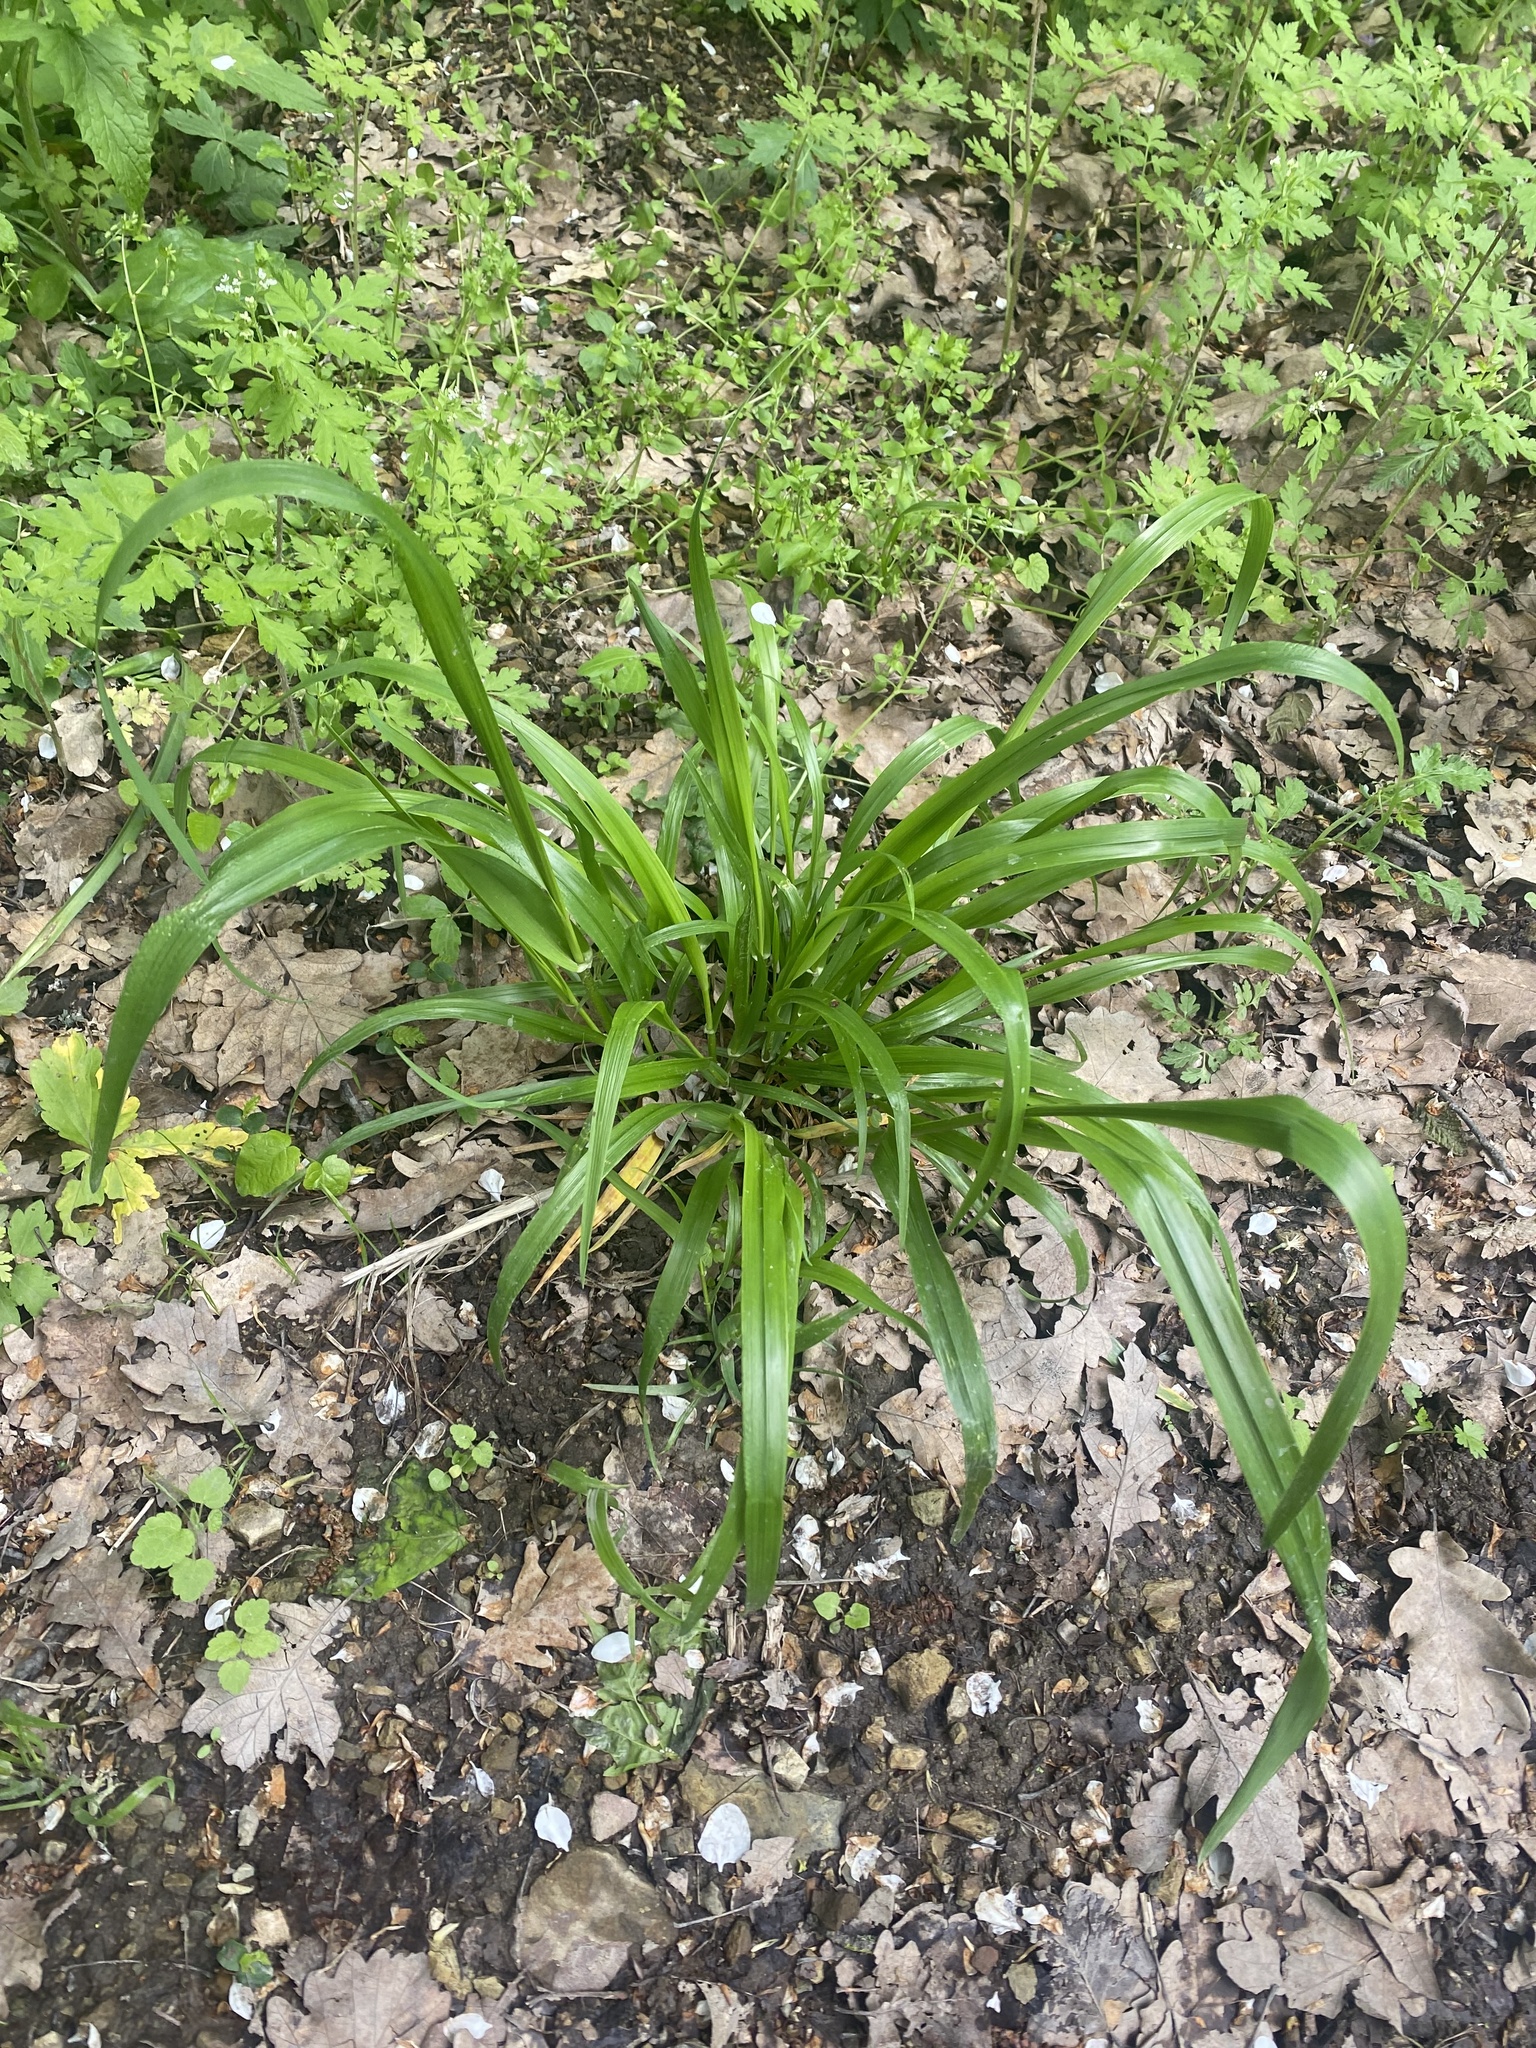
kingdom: Plantae
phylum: Tracheophyta
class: Liliopsida
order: Poales
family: Poaceae
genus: Lolium
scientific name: Lolium giganteum
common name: Giant fescue
